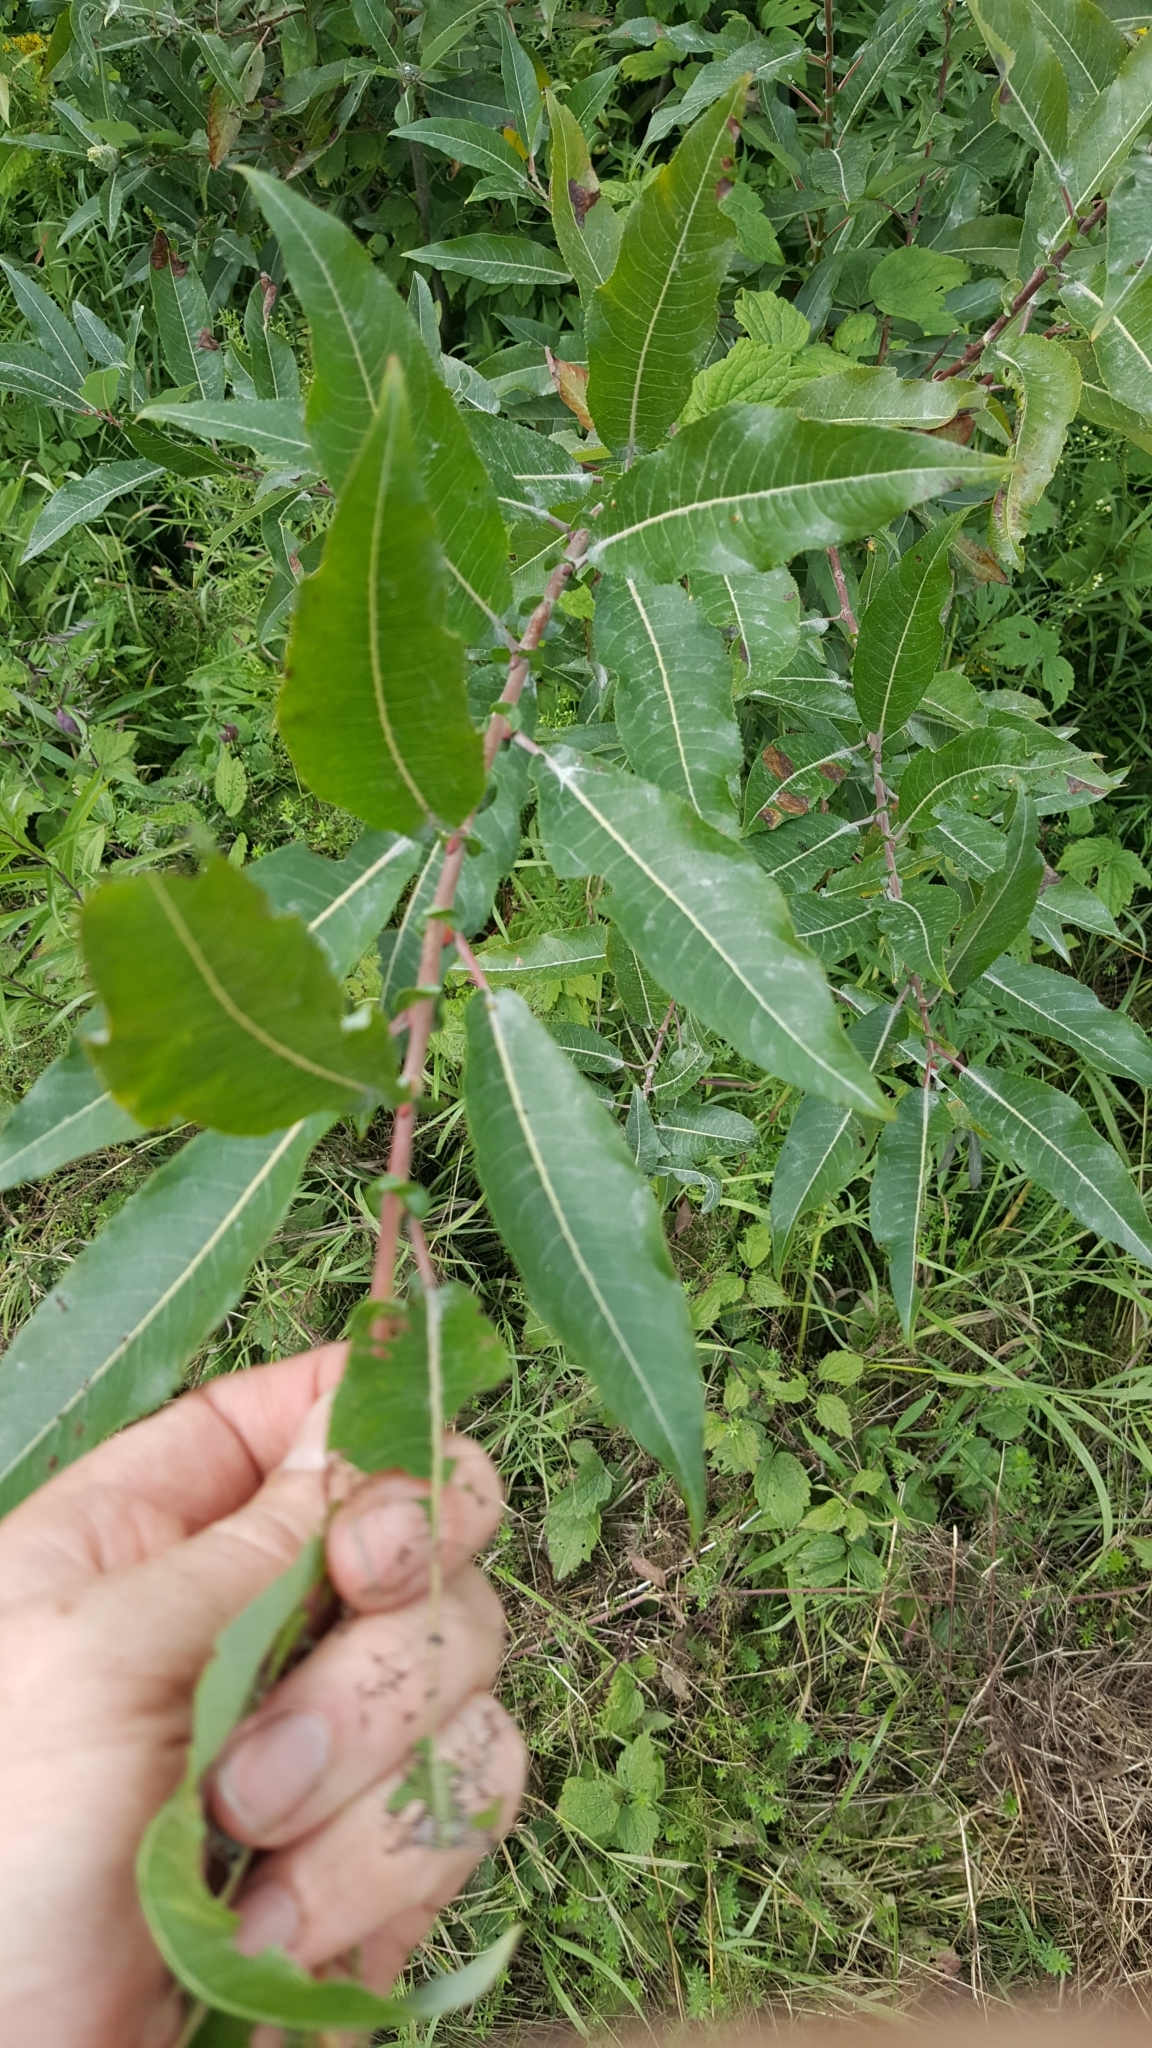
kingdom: Plantae
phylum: Tracheophyta
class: Magnoliopsida
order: Malpighiales
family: Salicaceae
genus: Salix
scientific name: Salix eriocephala
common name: Heart-leaved willow
